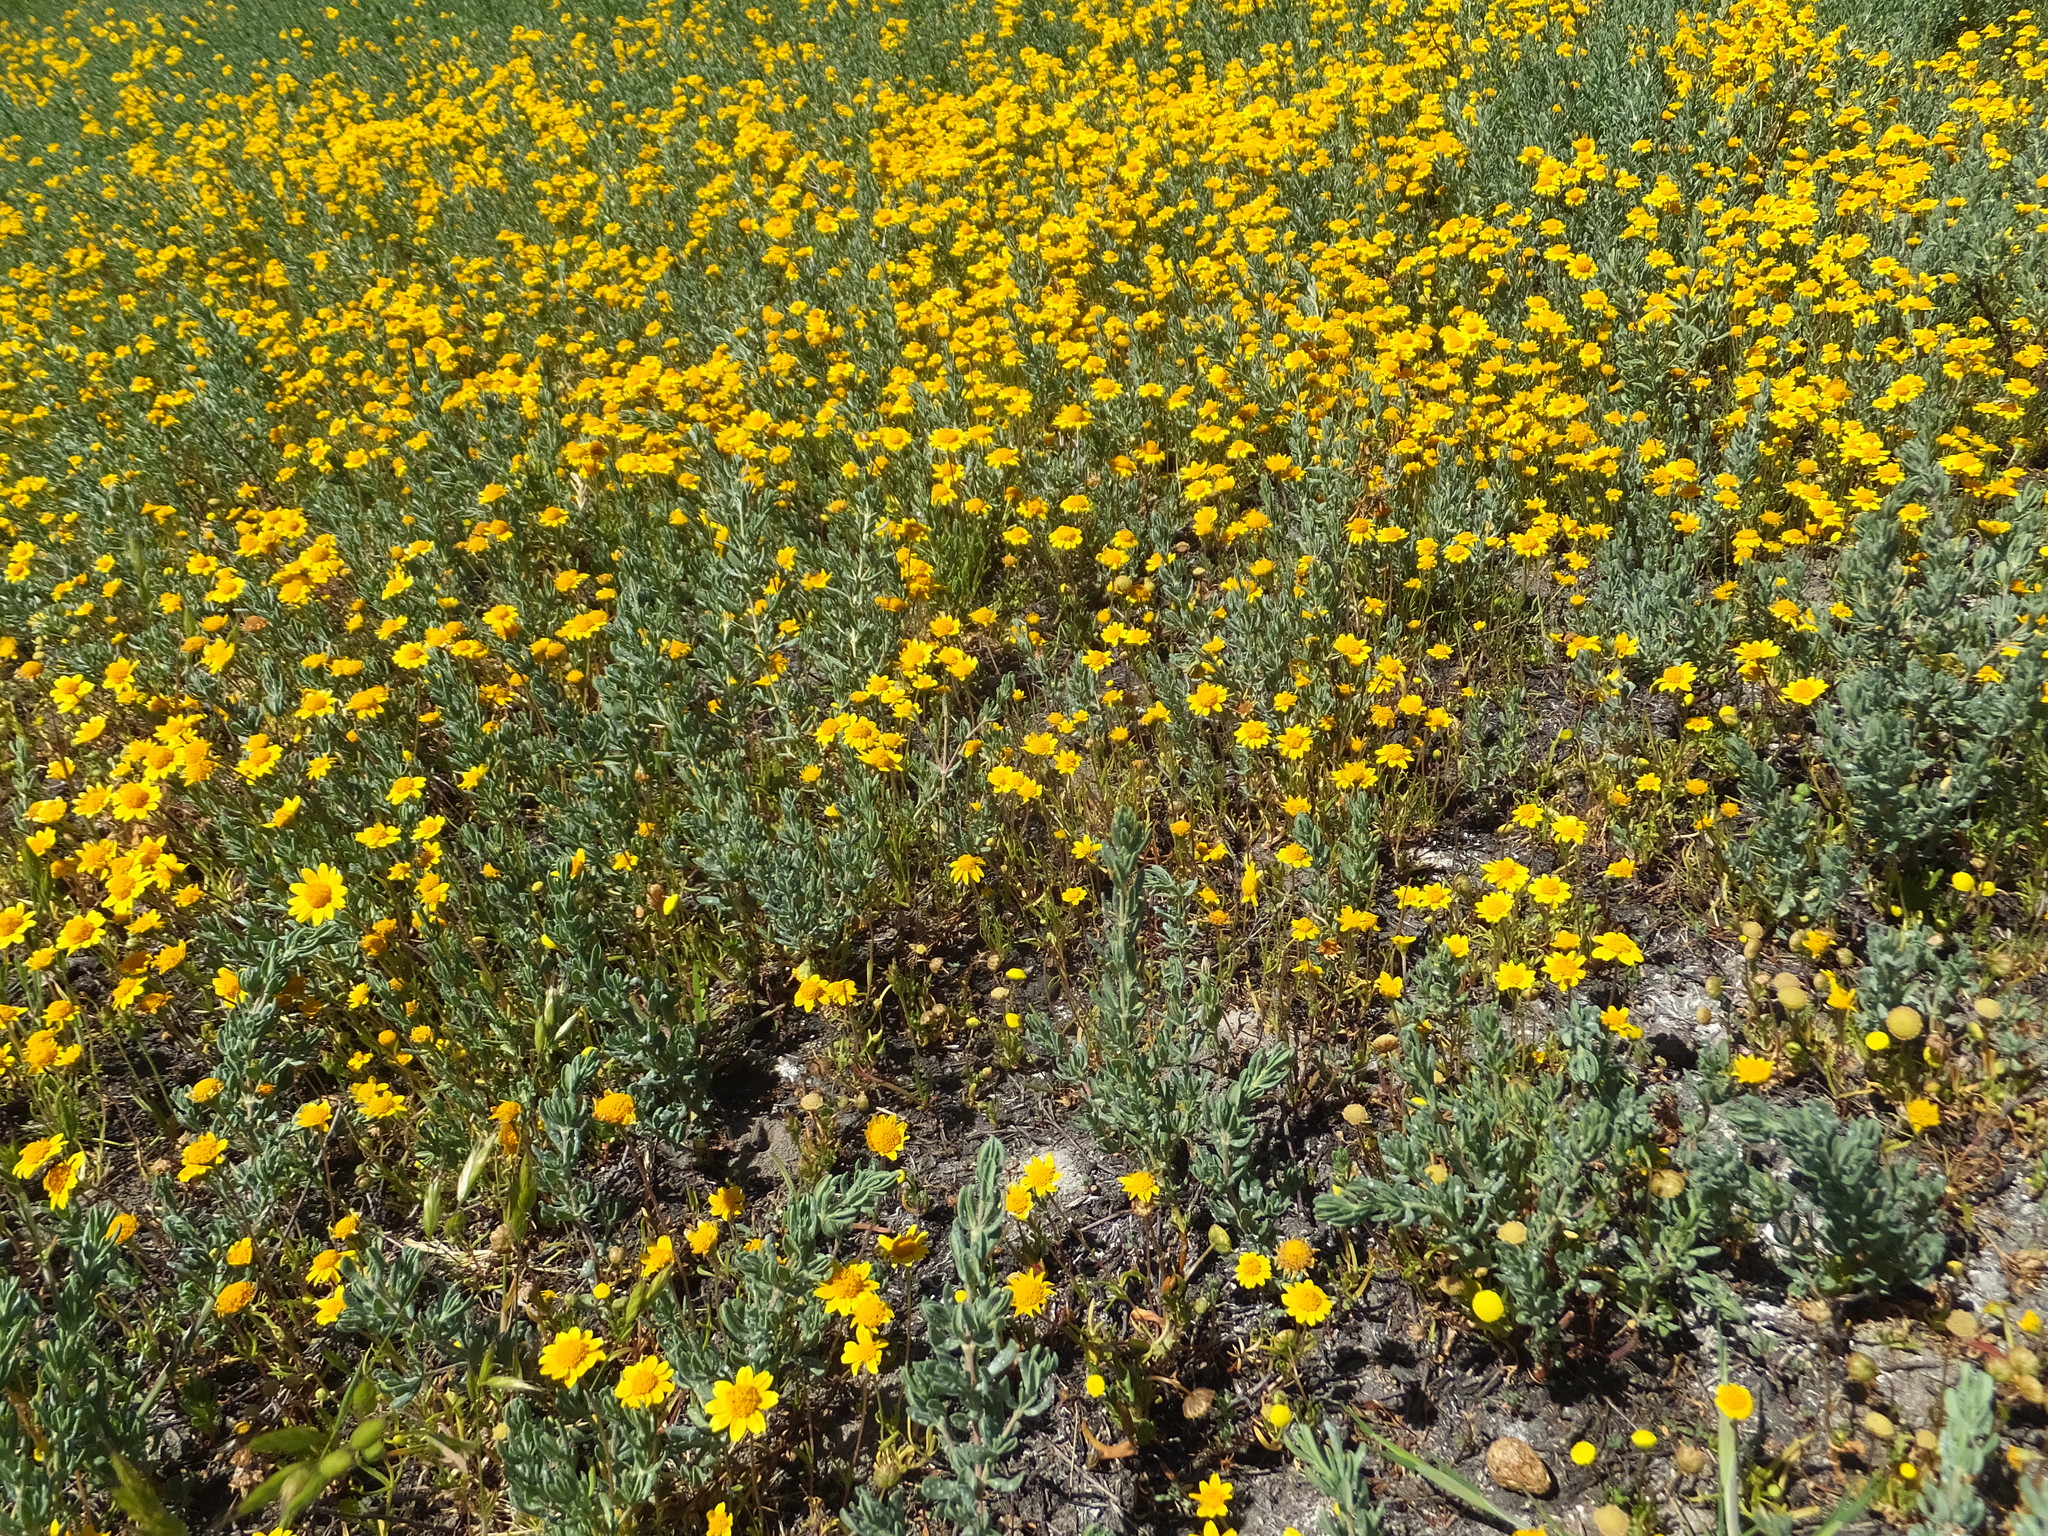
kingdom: Plantae
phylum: Tracheophyta
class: Magnoliopsida
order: Asterales
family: Asteraceae
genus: Lasthenia
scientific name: Lasthenia conjugens
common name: Contra costa goldfields
